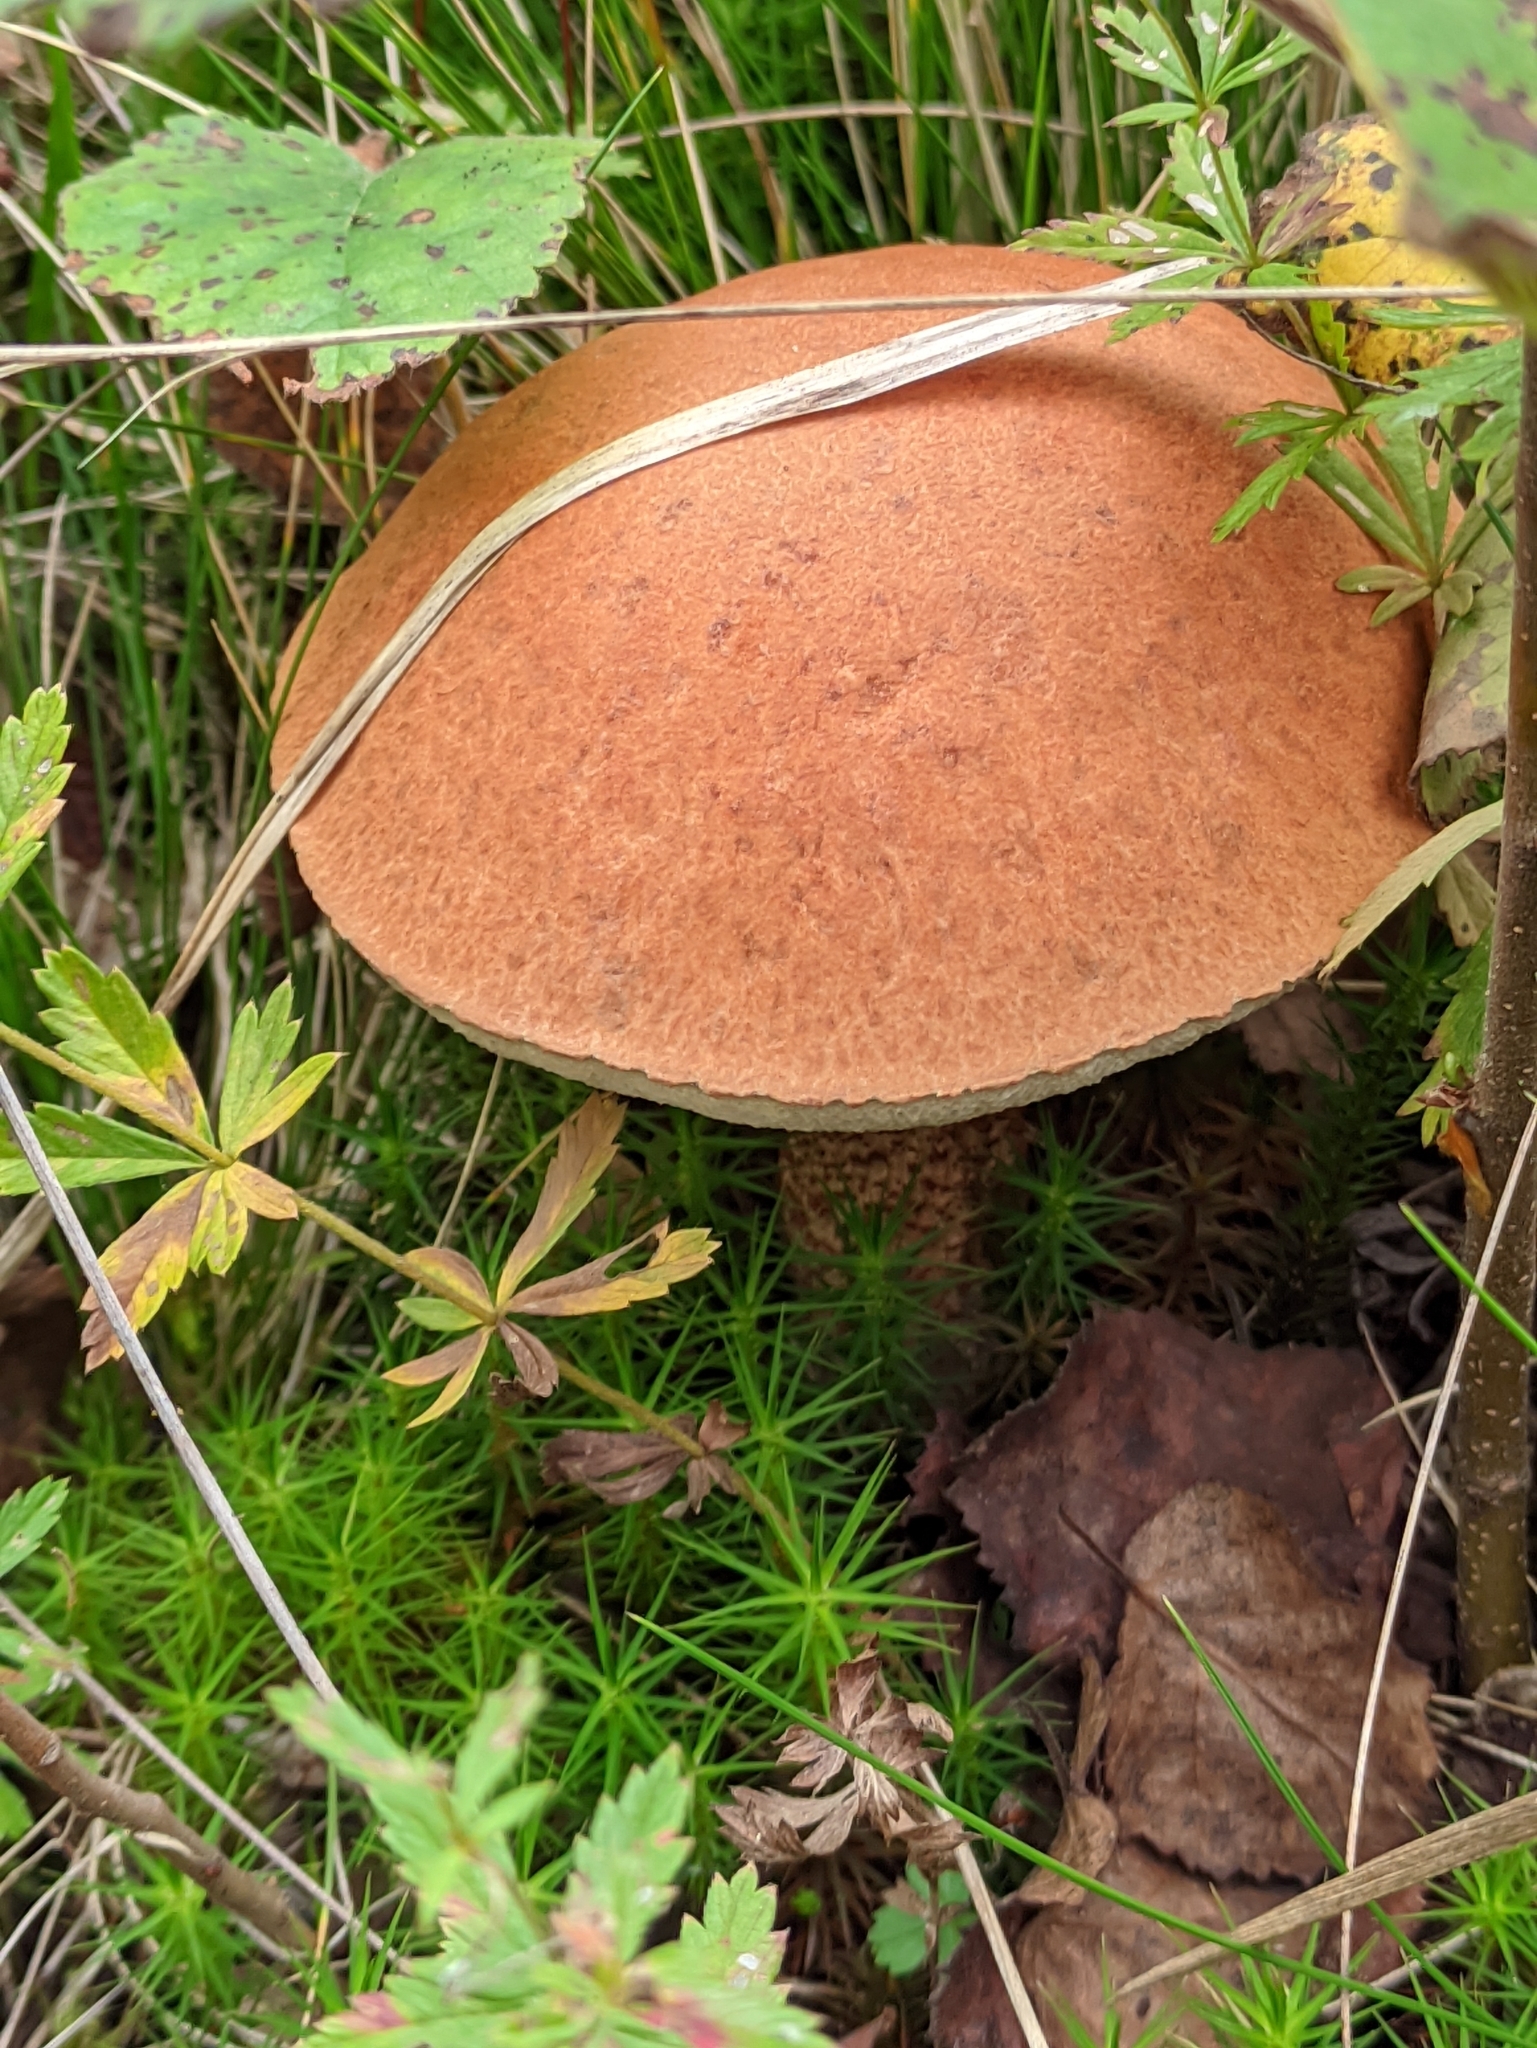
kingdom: Fungi
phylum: Basidiomycota
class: Agaricomycetes
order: Boletales
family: Boletaceae
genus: Leccinum
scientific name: Leccinum aurantiacum
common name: Orange bolete
